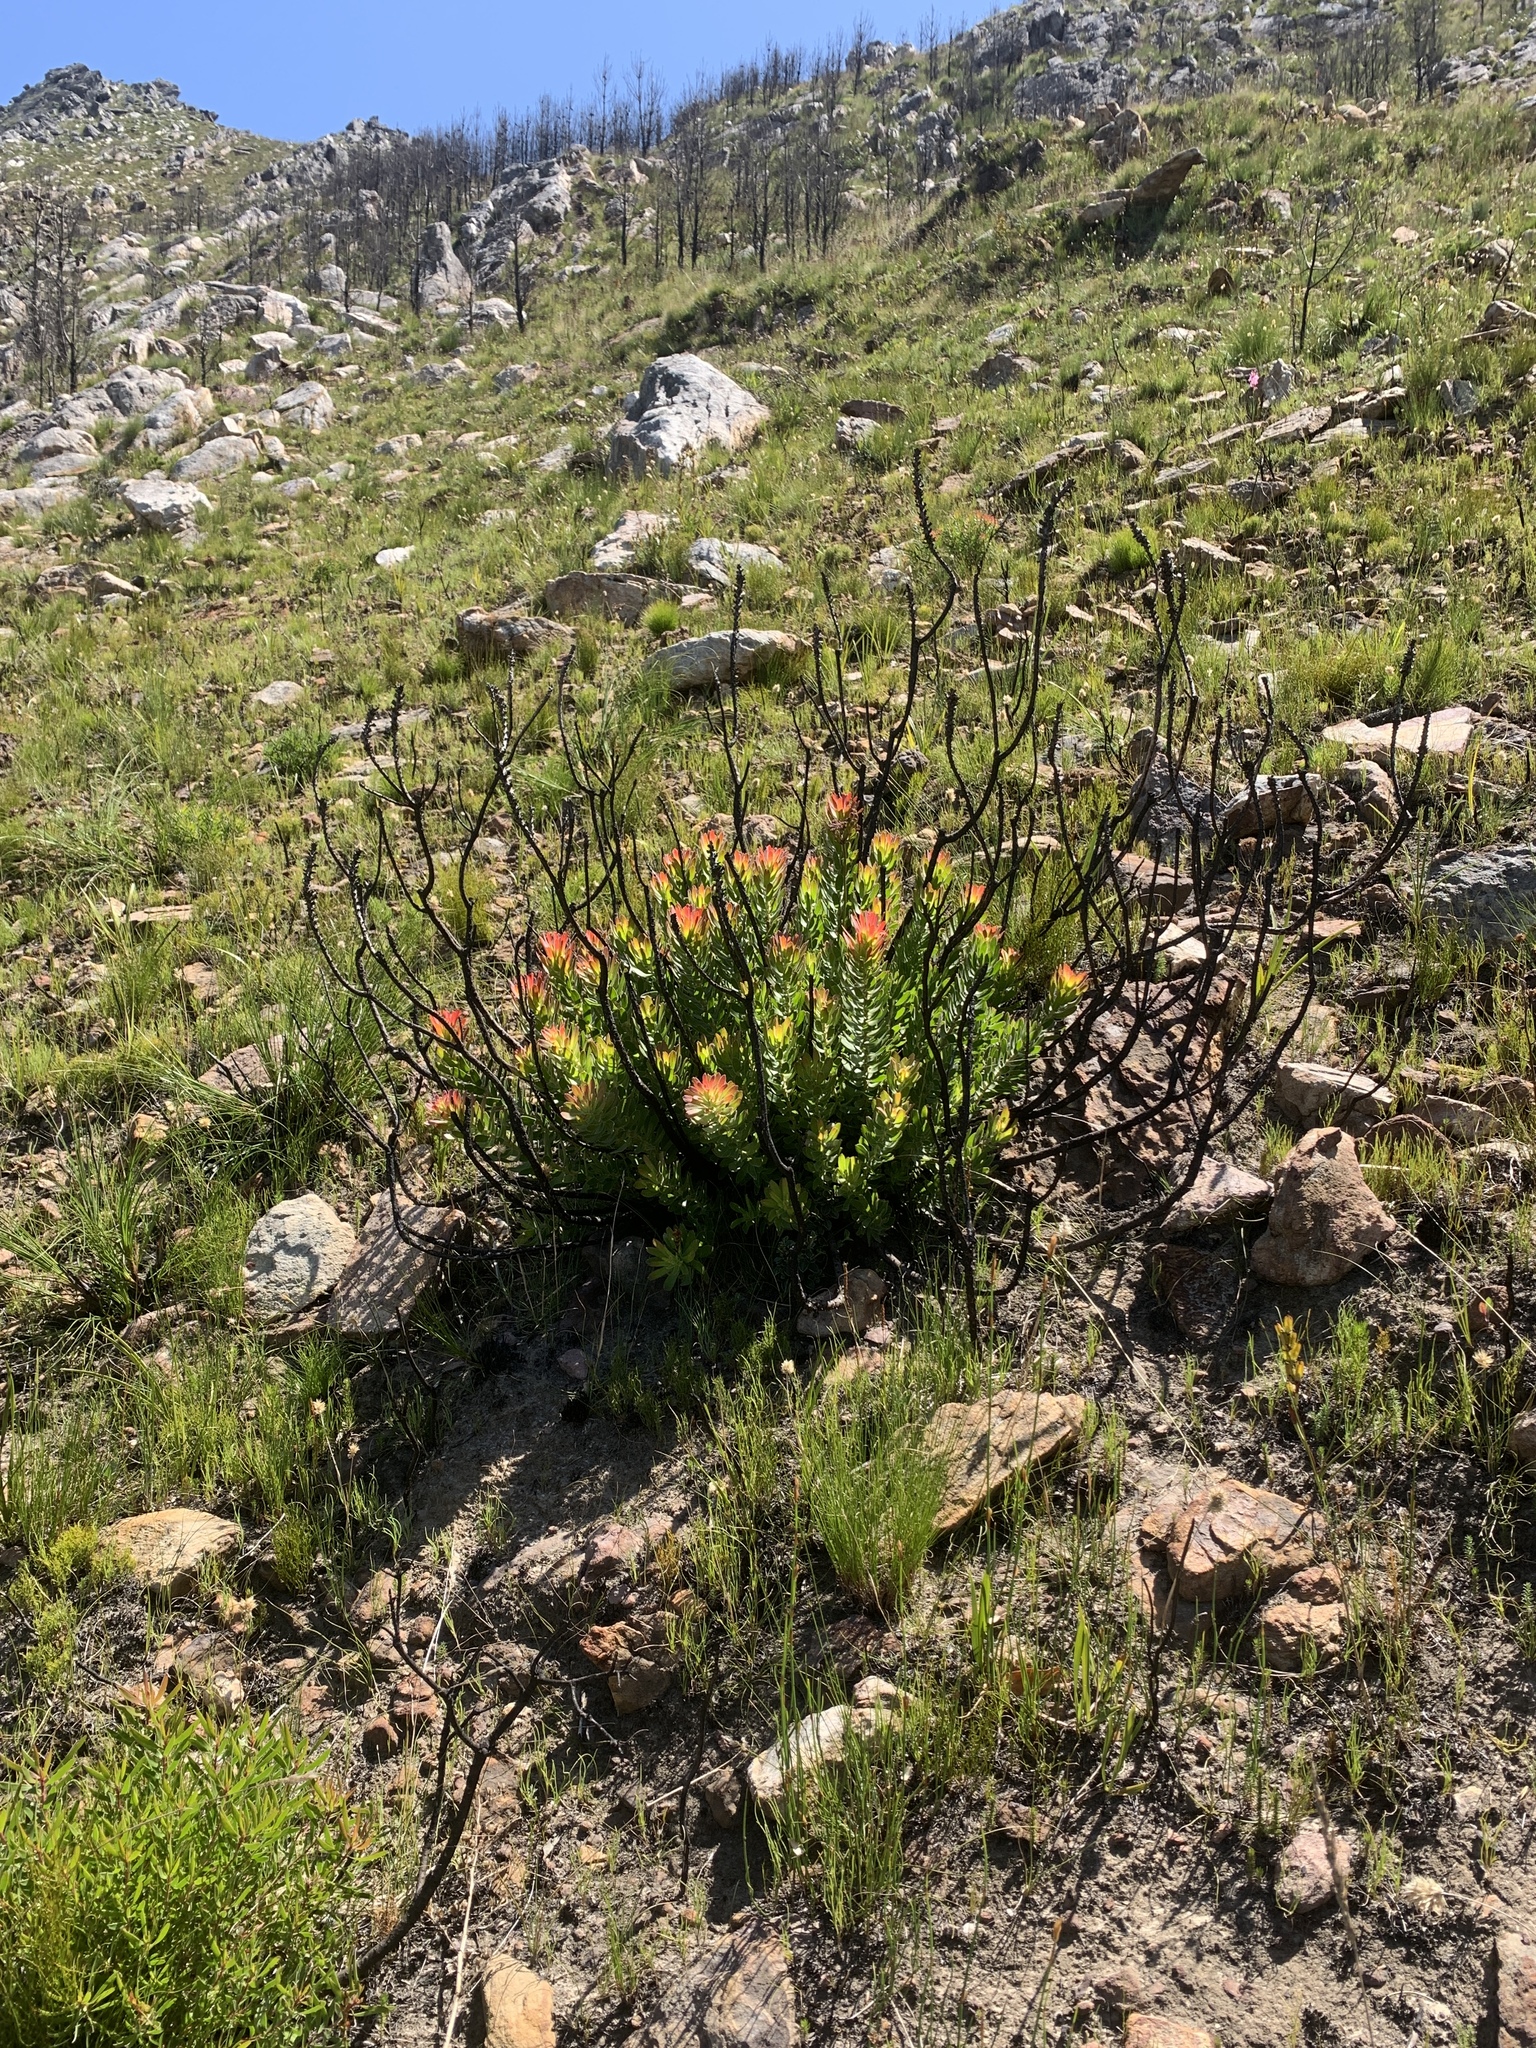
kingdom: Plantae
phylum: Tracheophyta
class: Magnoliopsida
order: Proteales
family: Proteaceae
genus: Mimetes
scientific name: Mimetes cucullatus
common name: Common pagoda
